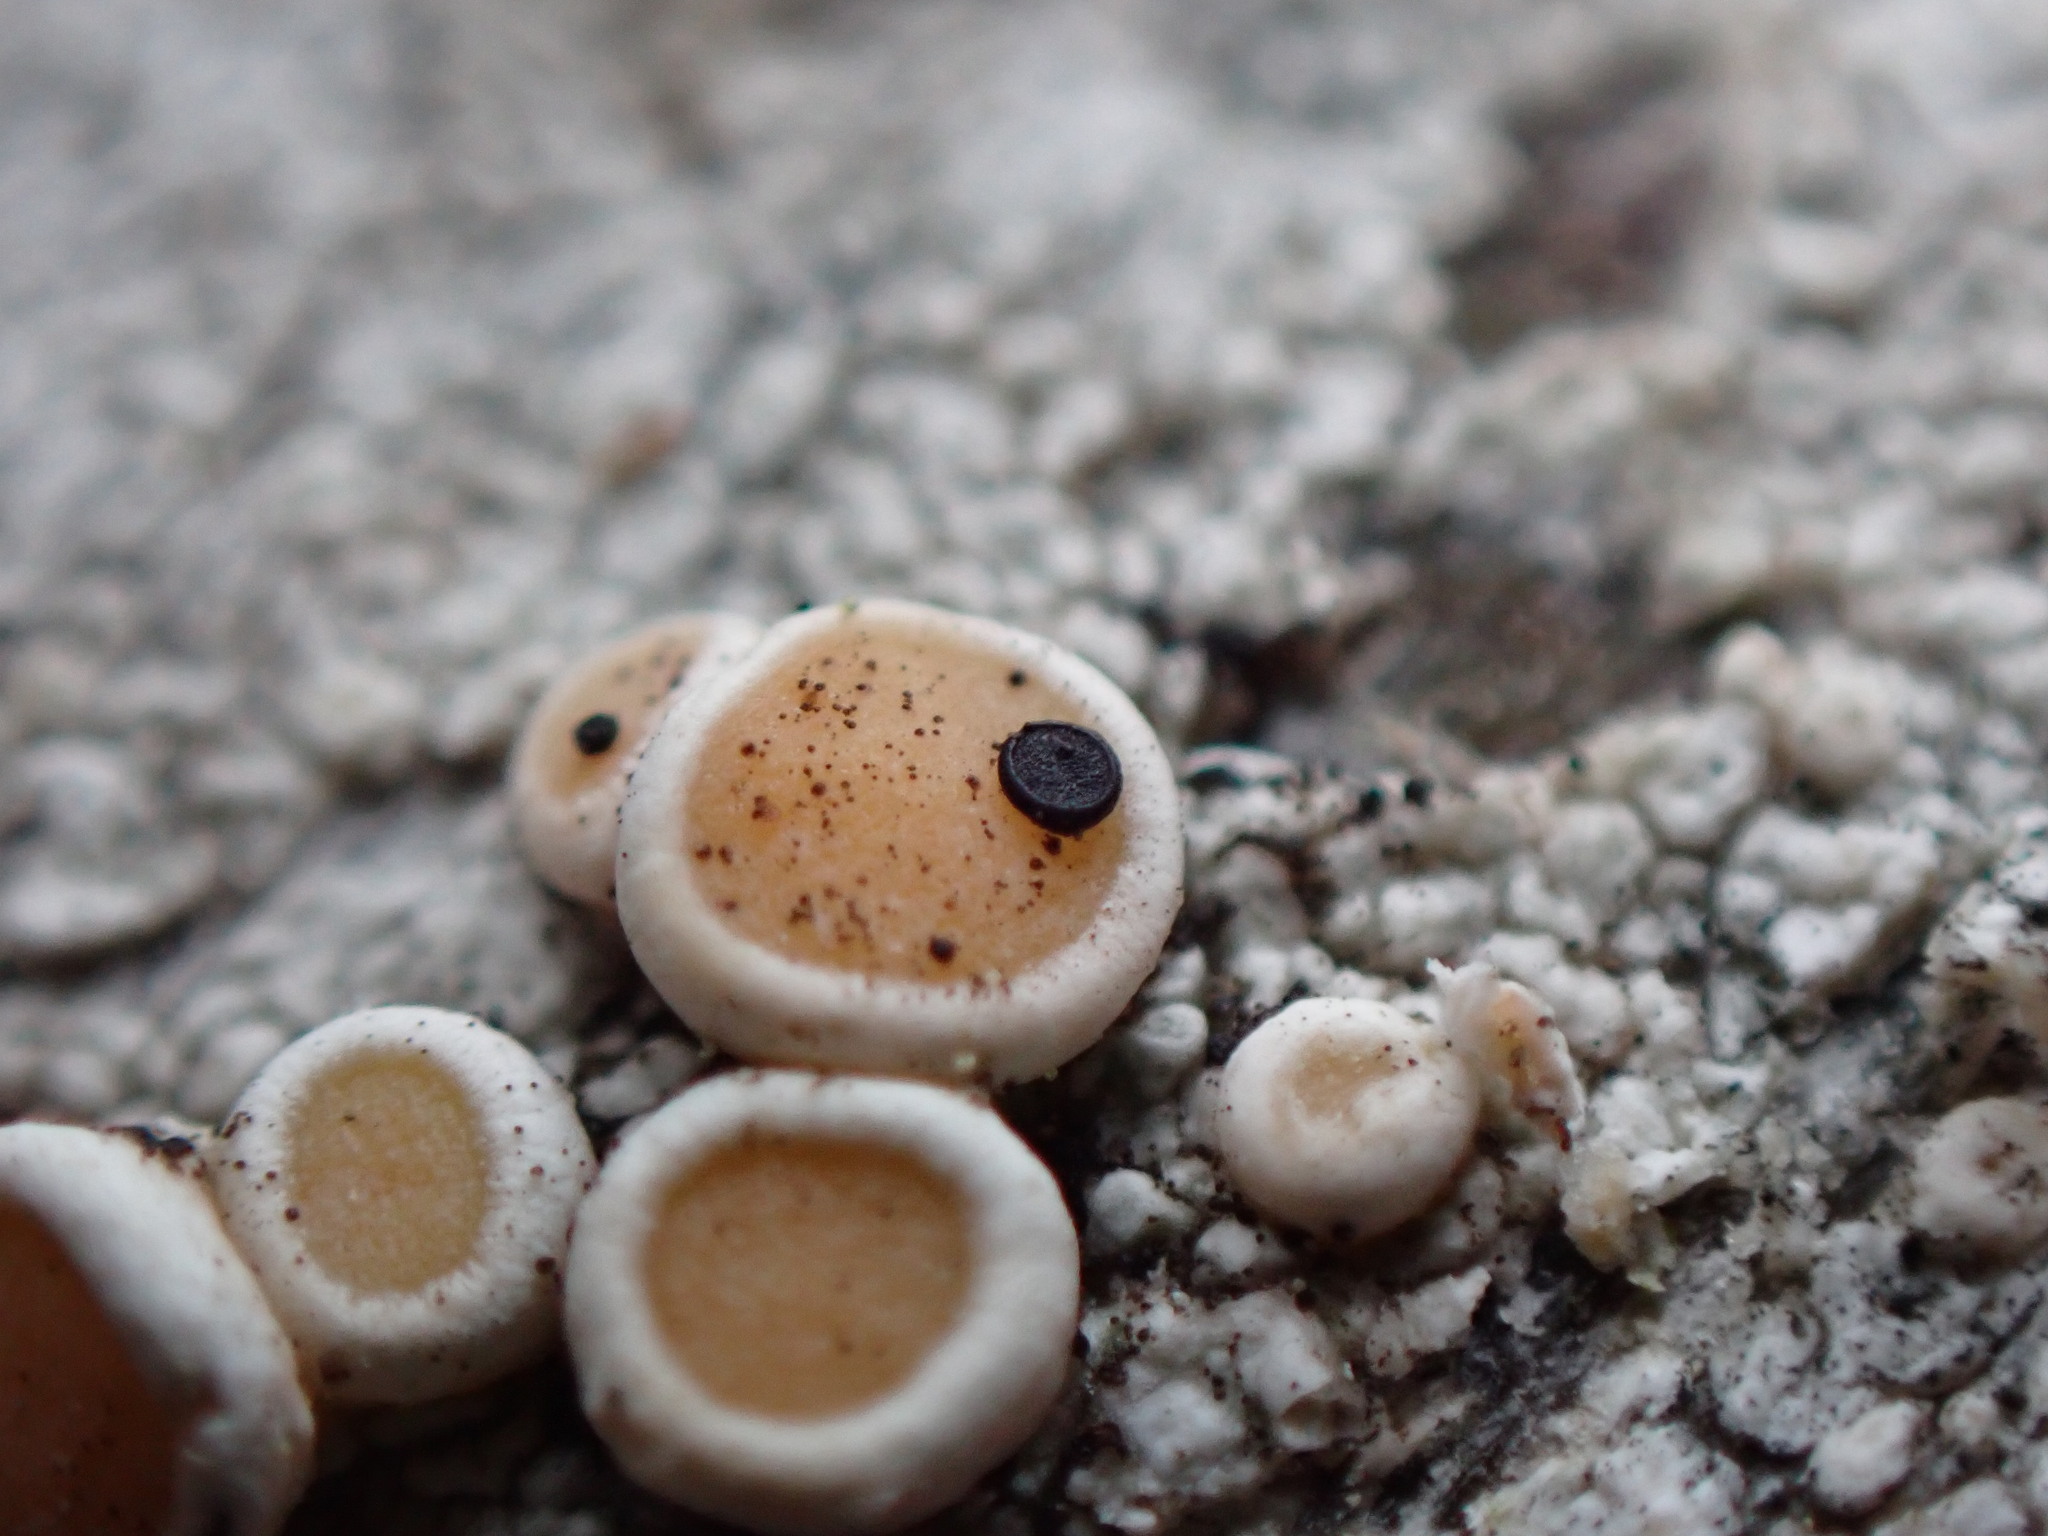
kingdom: Fungi
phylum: Ascomycota
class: Eurotiomycetes
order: Sclerococcales
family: Sclerococcaceae
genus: Sclerococcum
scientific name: Sclerococcum parasiticum
